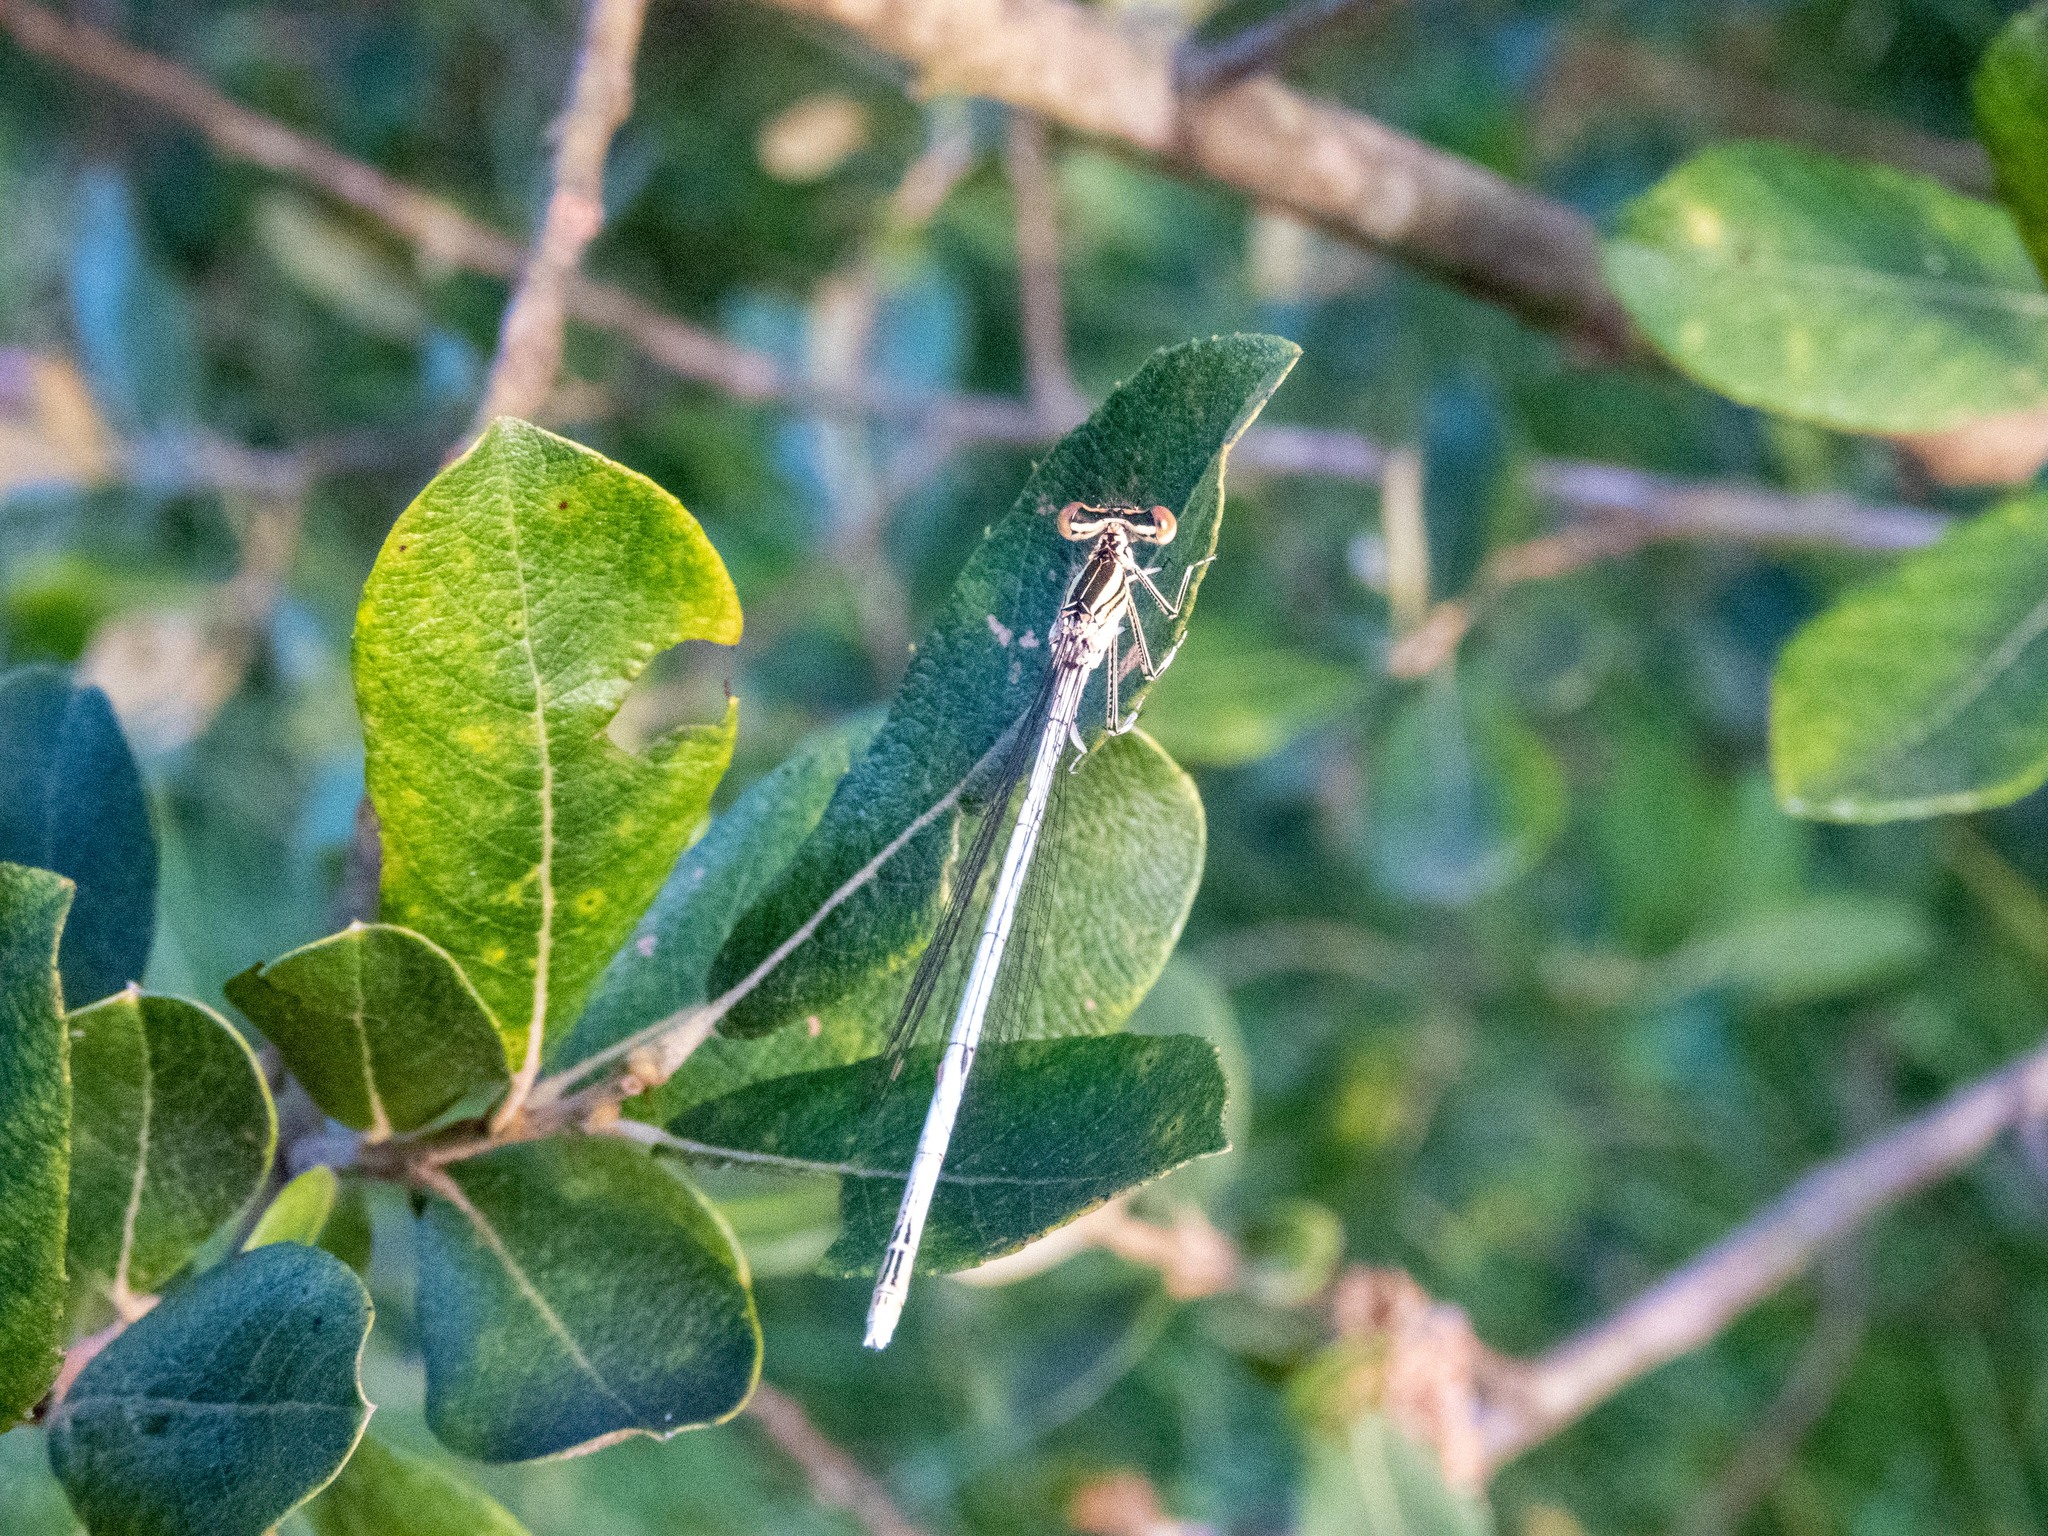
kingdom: Animalia
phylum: Arthropoda
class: Insecta
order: Odonata
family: Platycnemididae
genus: Platycnemis
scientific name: Platycnemis latipes
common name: White featherleg
